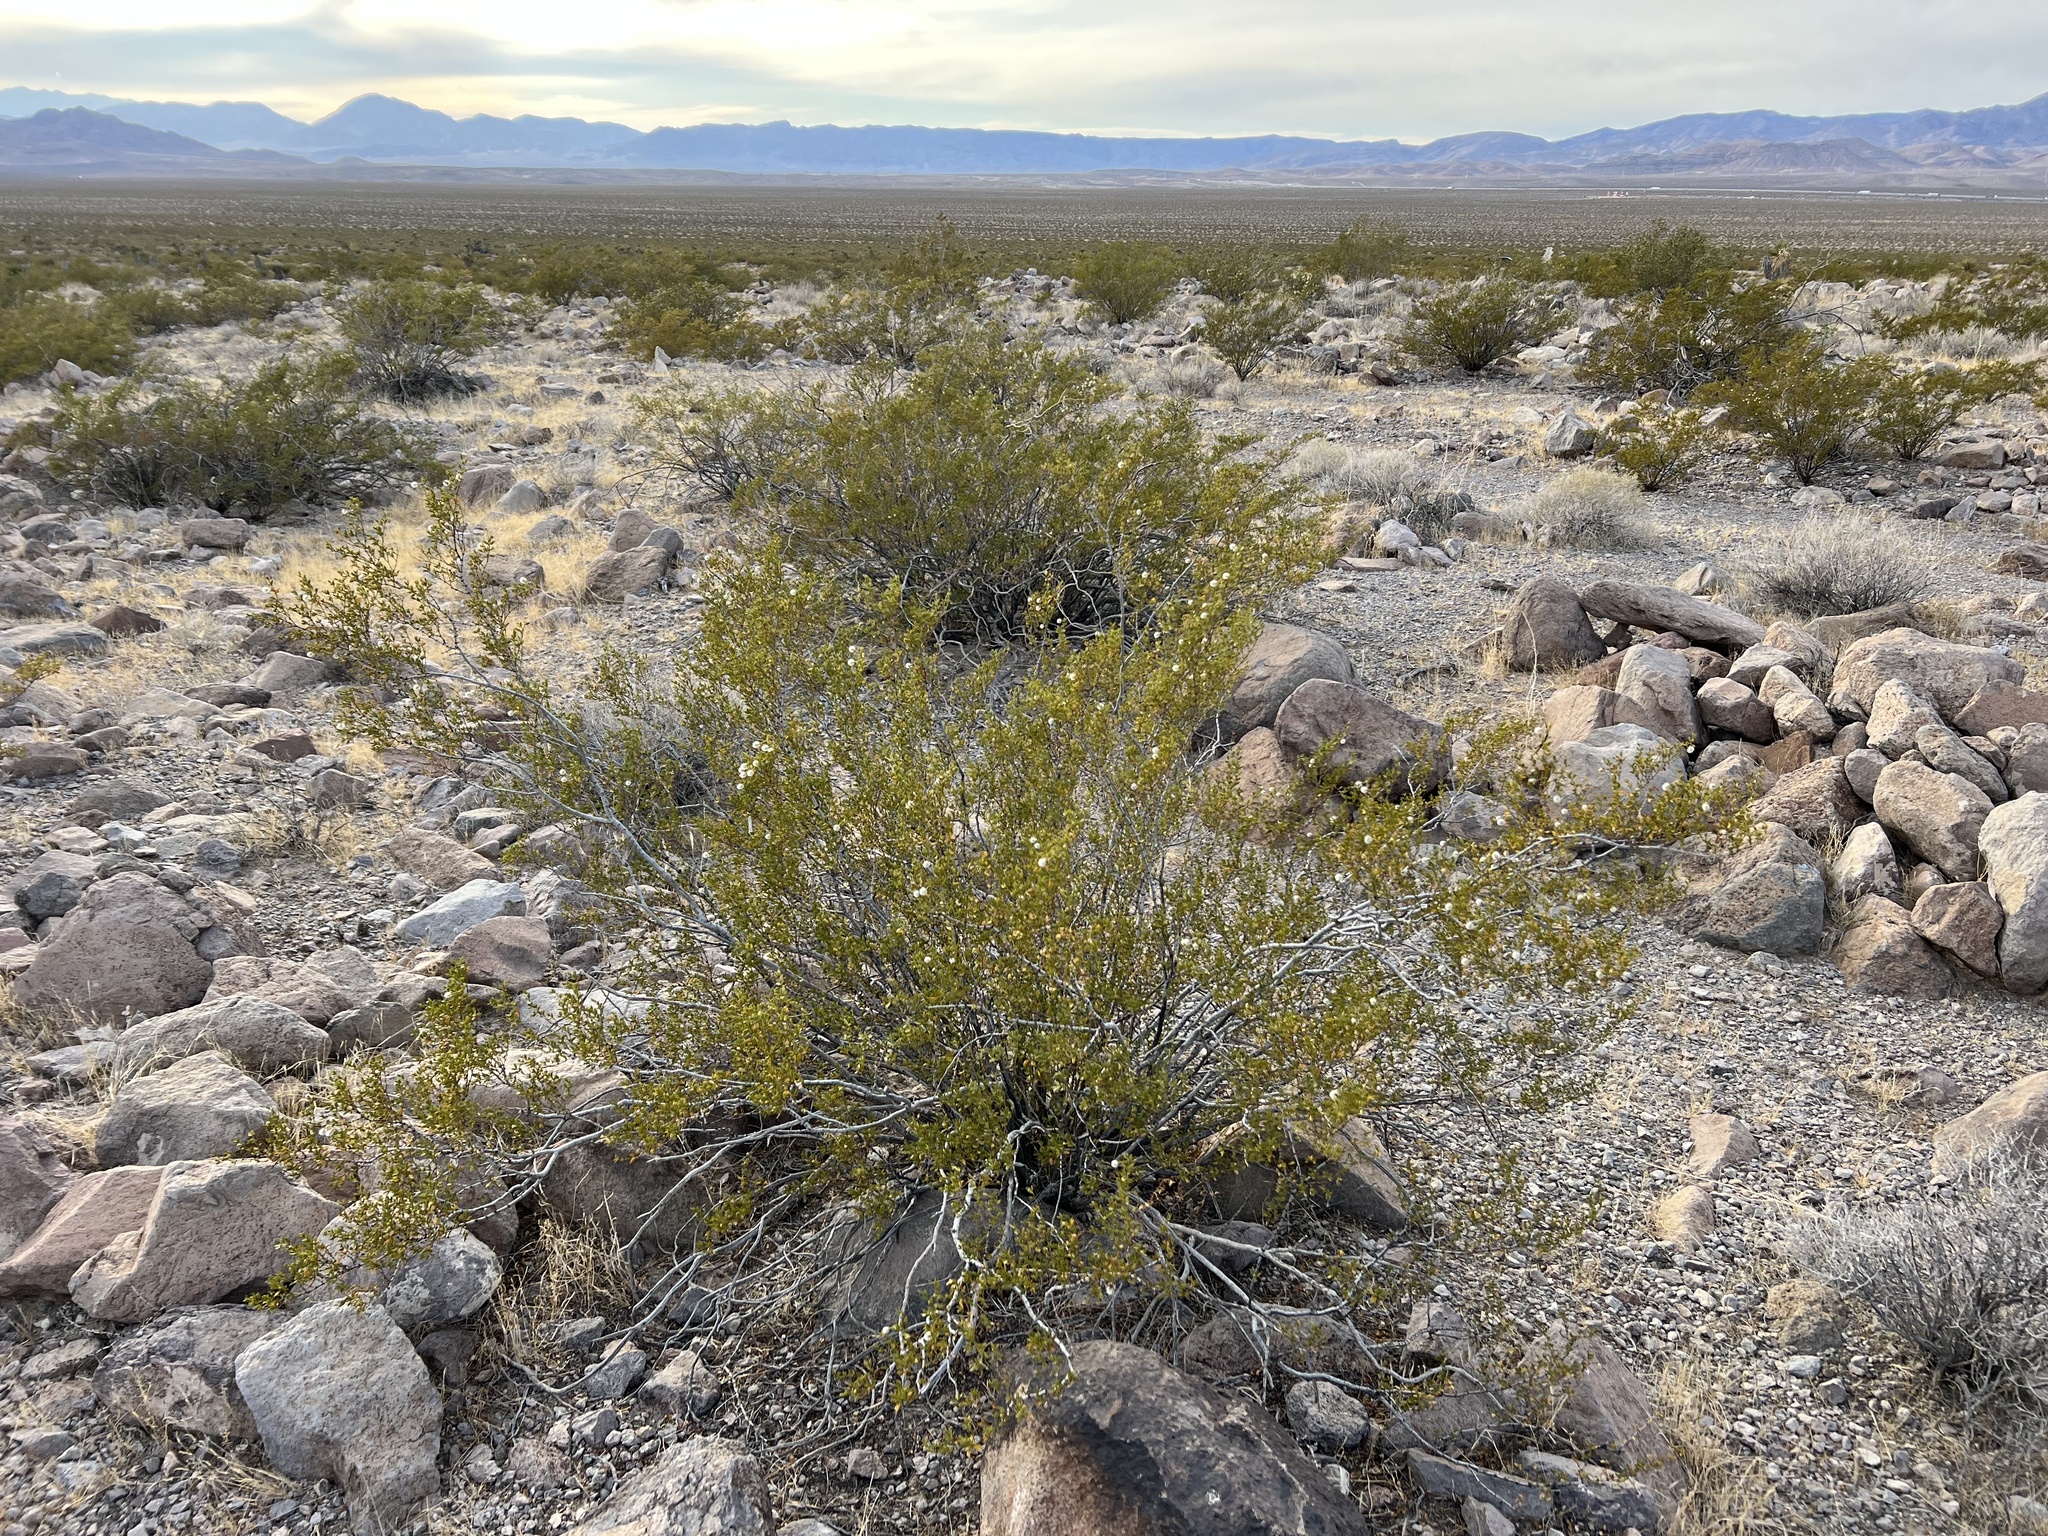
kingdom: Plantae
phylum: Tracheophyta
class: Magnoliopsida
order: Zygophyllales
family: Zygophyllaceae
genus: Larrea
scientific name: Larrea tridentata
